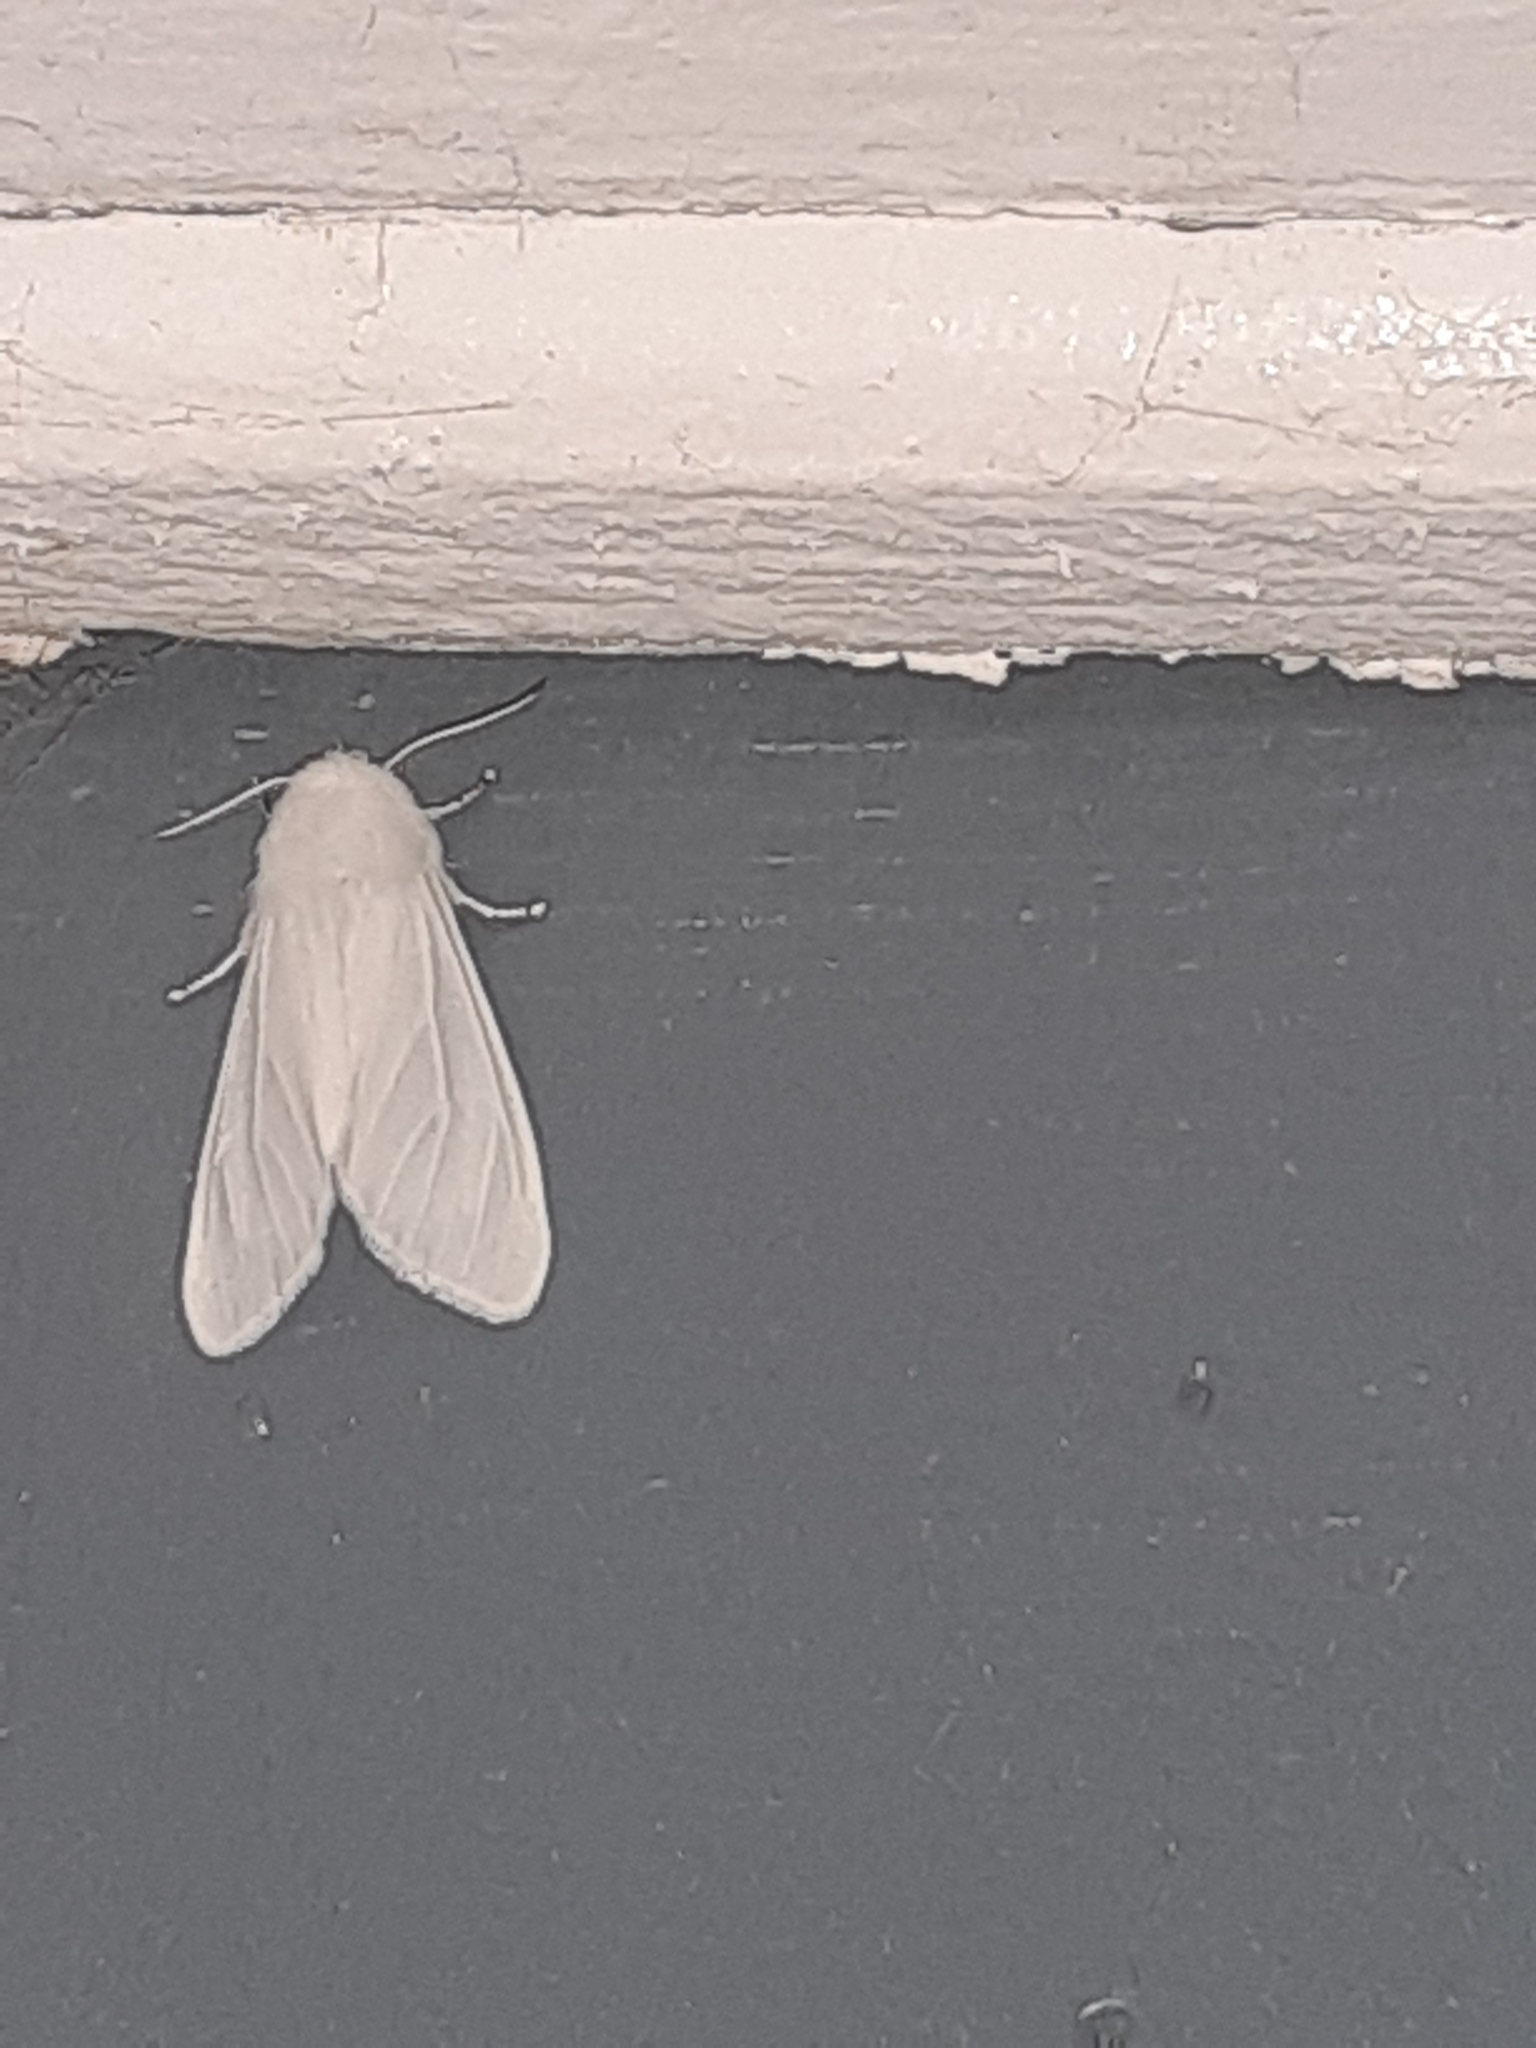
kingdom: Animalia
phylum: Arthropoda
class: Insecta
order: Lepidoptera
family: Erebidae
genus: Hyphantria
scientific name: Hyphantria cunea
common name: American white moth
